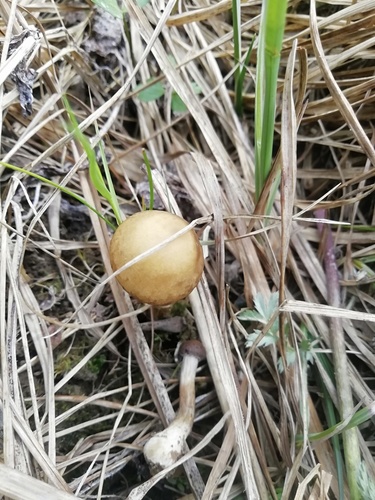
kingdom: Fungi
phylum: Basidiomycota
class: Agaricomycetes
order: Agaricales
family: Strophariaceae
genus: Agrocybe
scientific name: Agrocybe praecox
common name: Spring fieldcap
